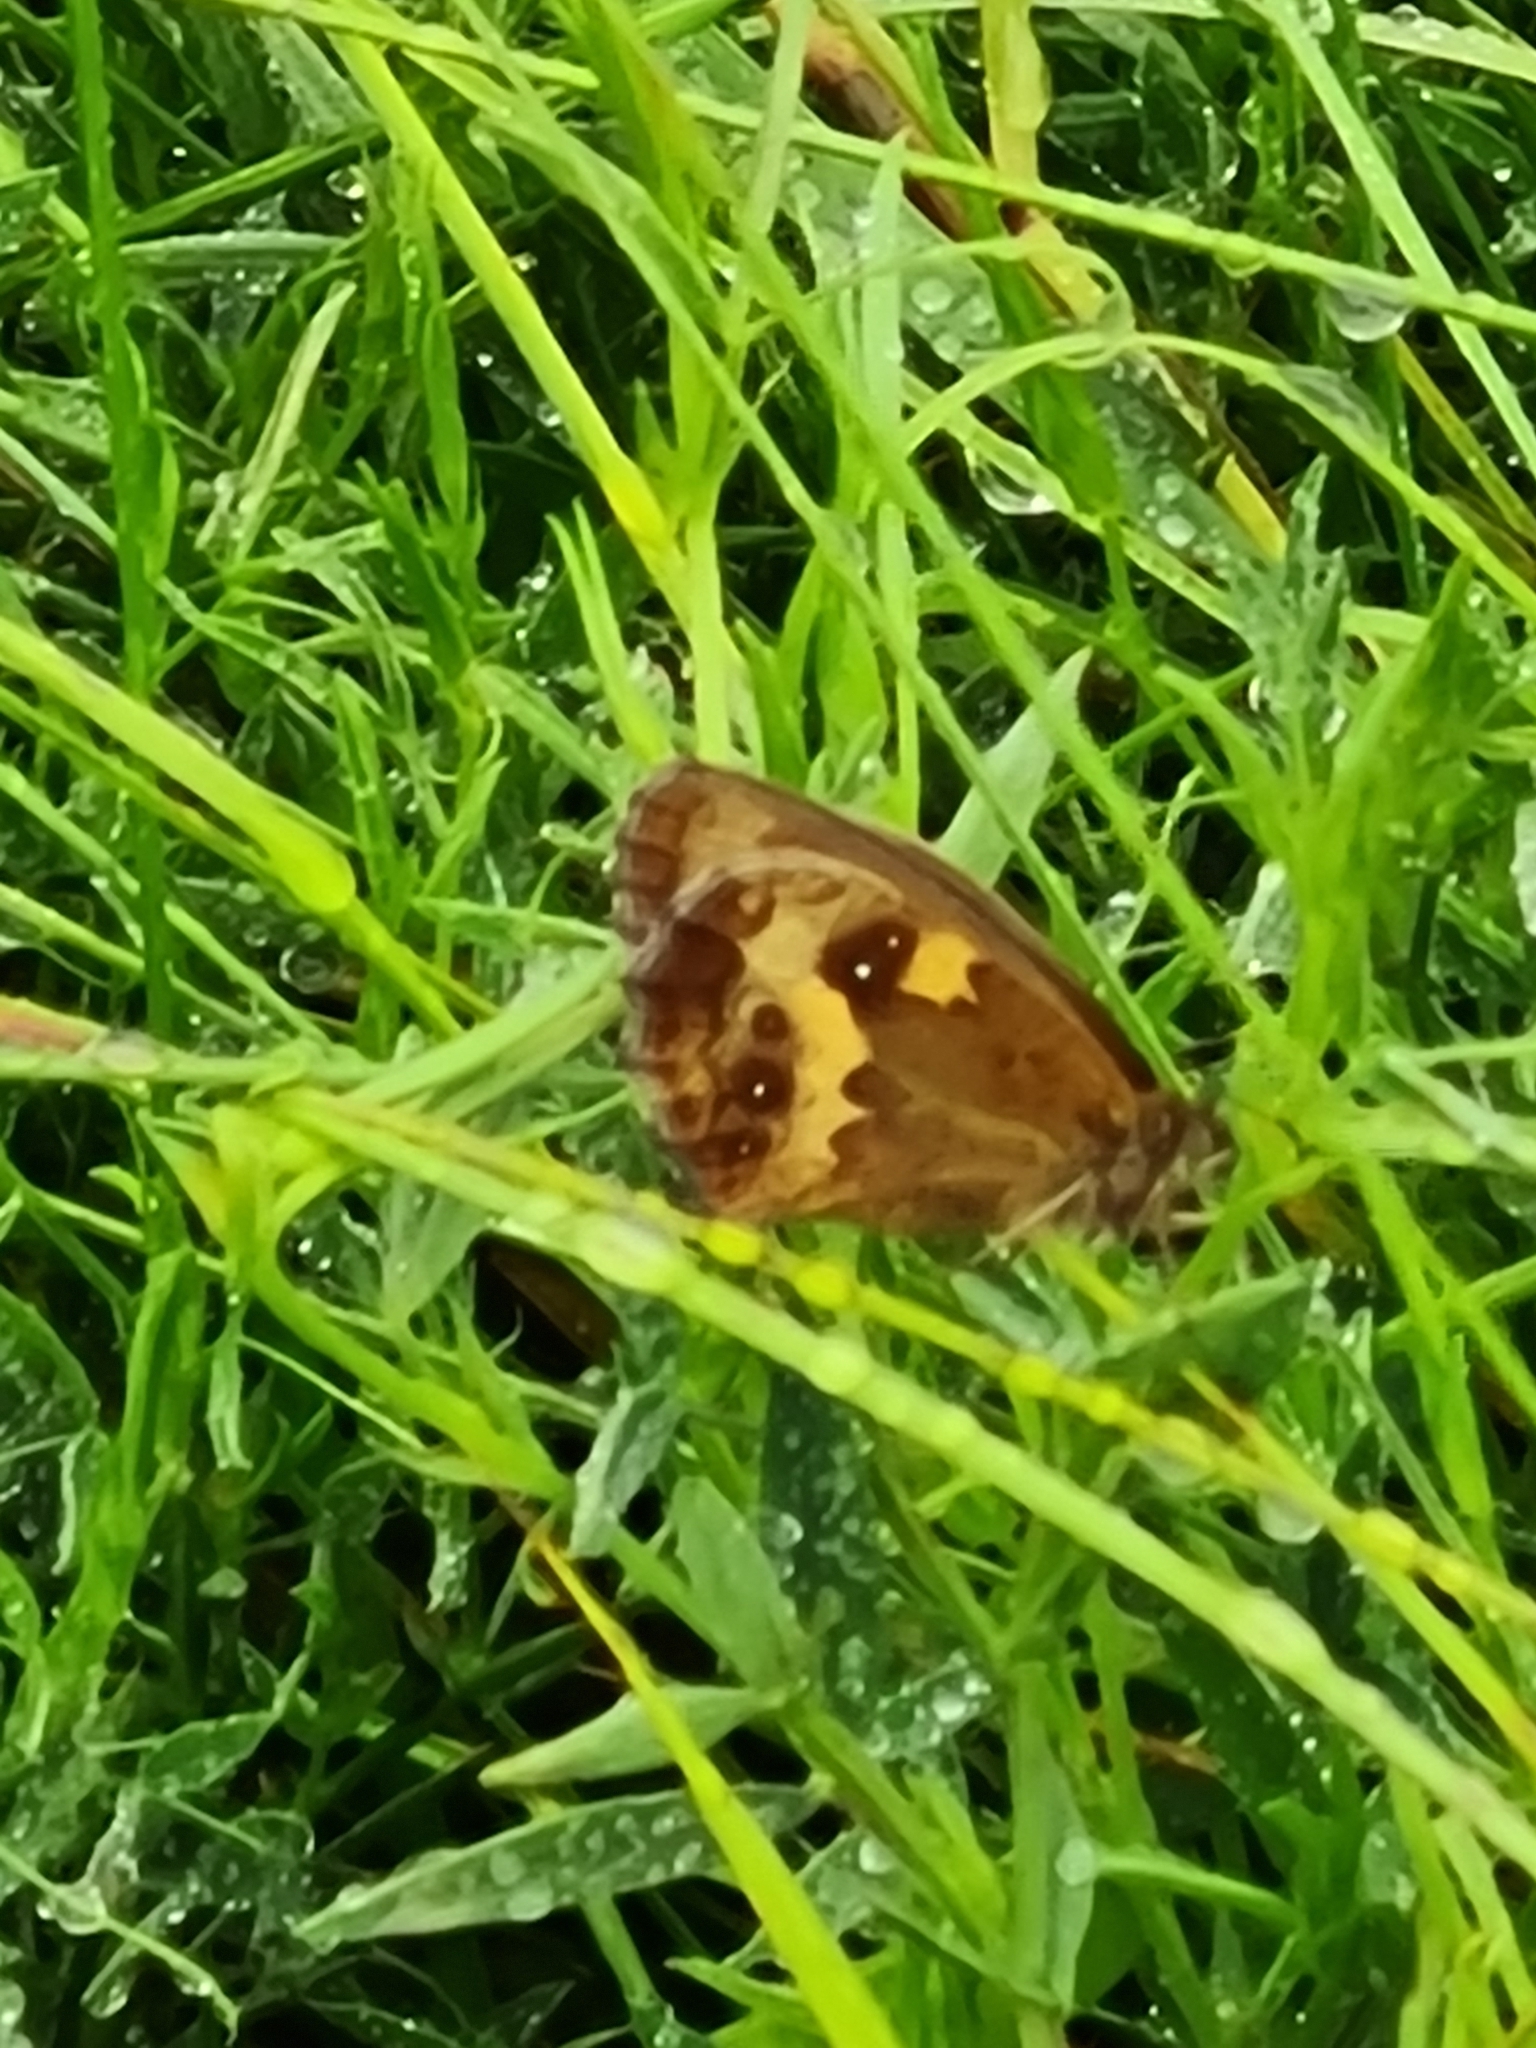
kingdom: Animalia
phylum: Arthropoda
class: Insecta
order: Lepidoptera
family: Nymphalidae
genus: Pyronia
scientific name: Pyronia tithonus
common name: Gatekeeper
